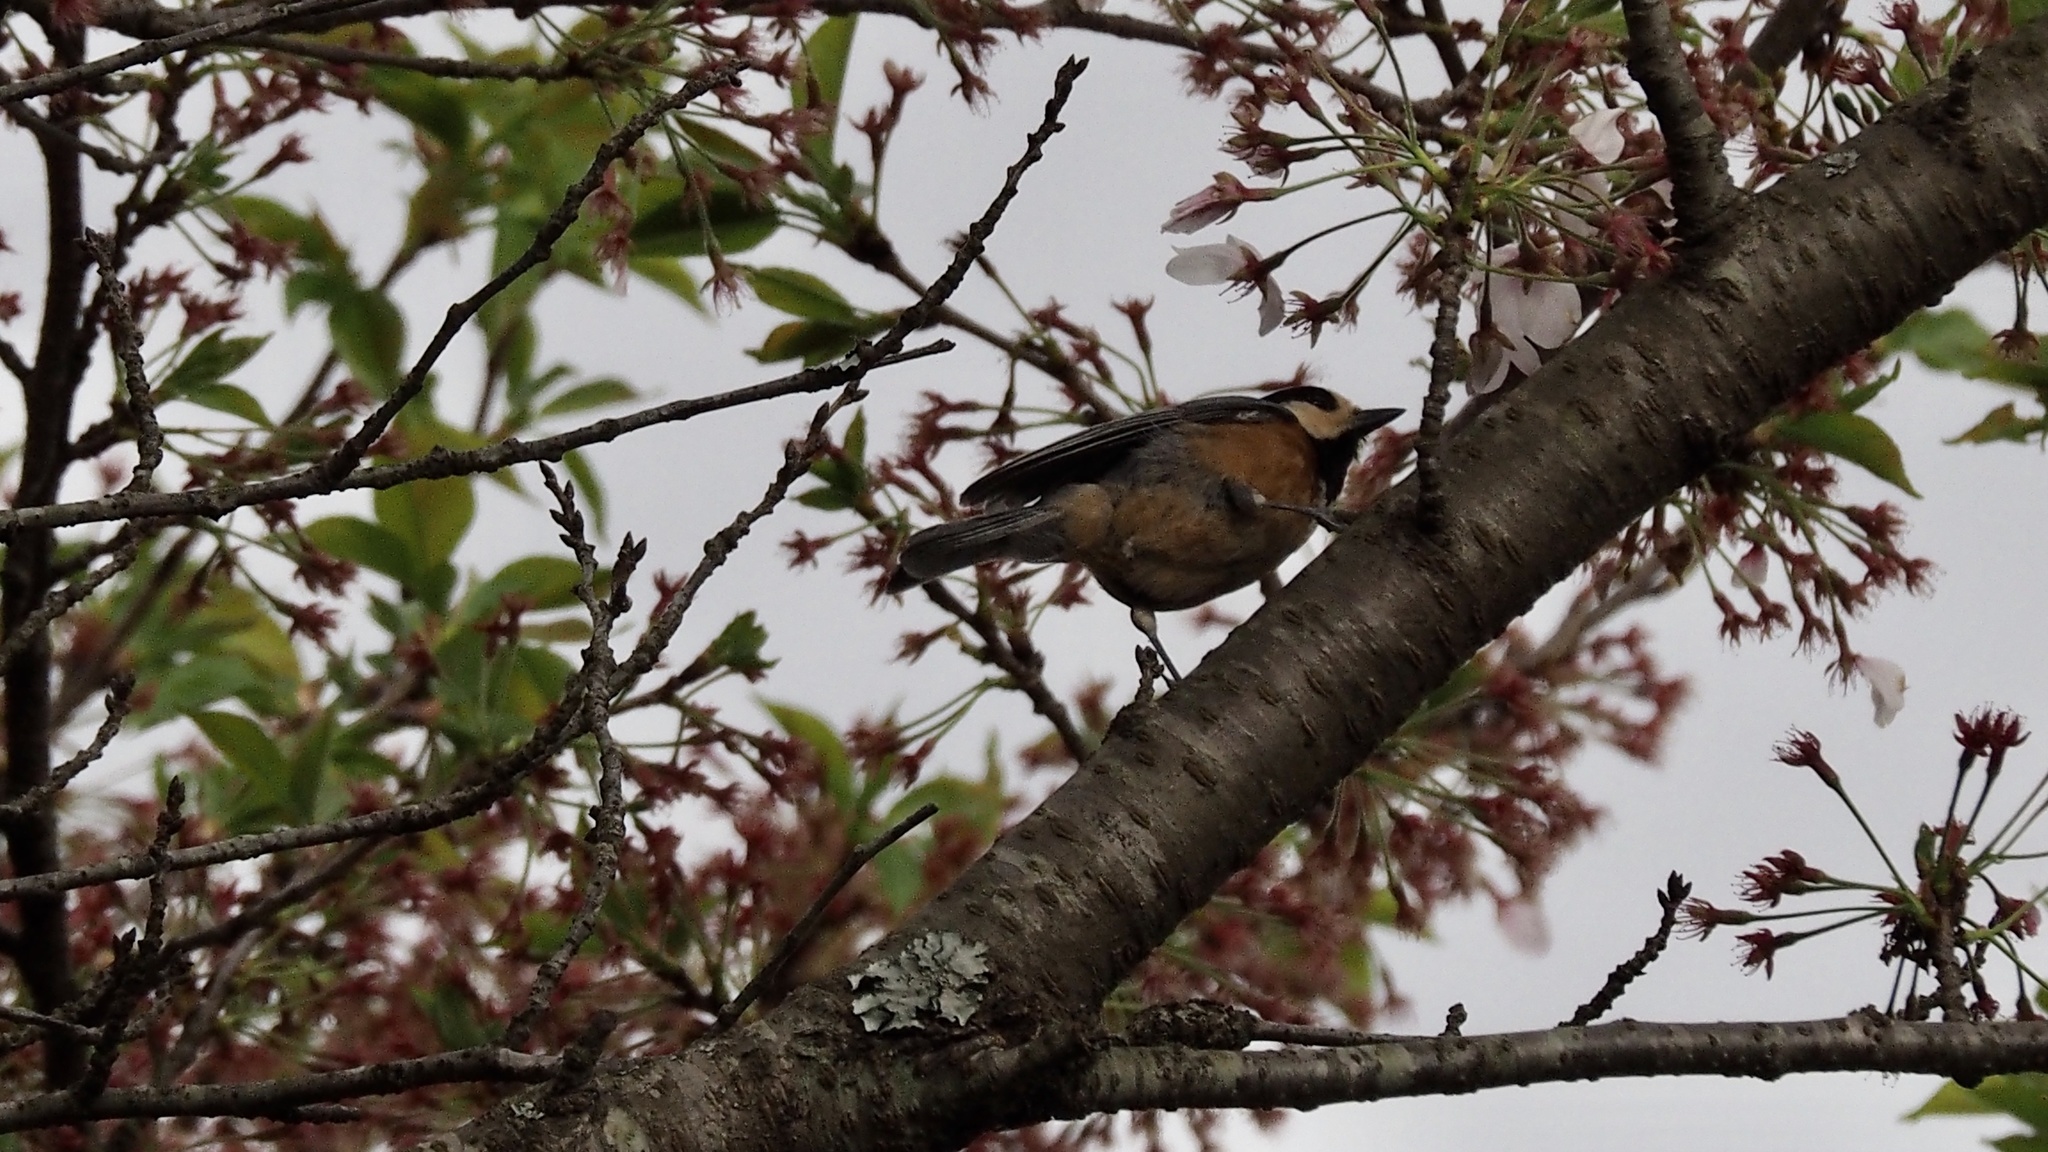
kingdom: Animalia
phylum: Chordata
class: Aves
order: Passeriformes
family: Paridae
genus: Poecile
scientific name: Poecile varius
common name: Varied tit
